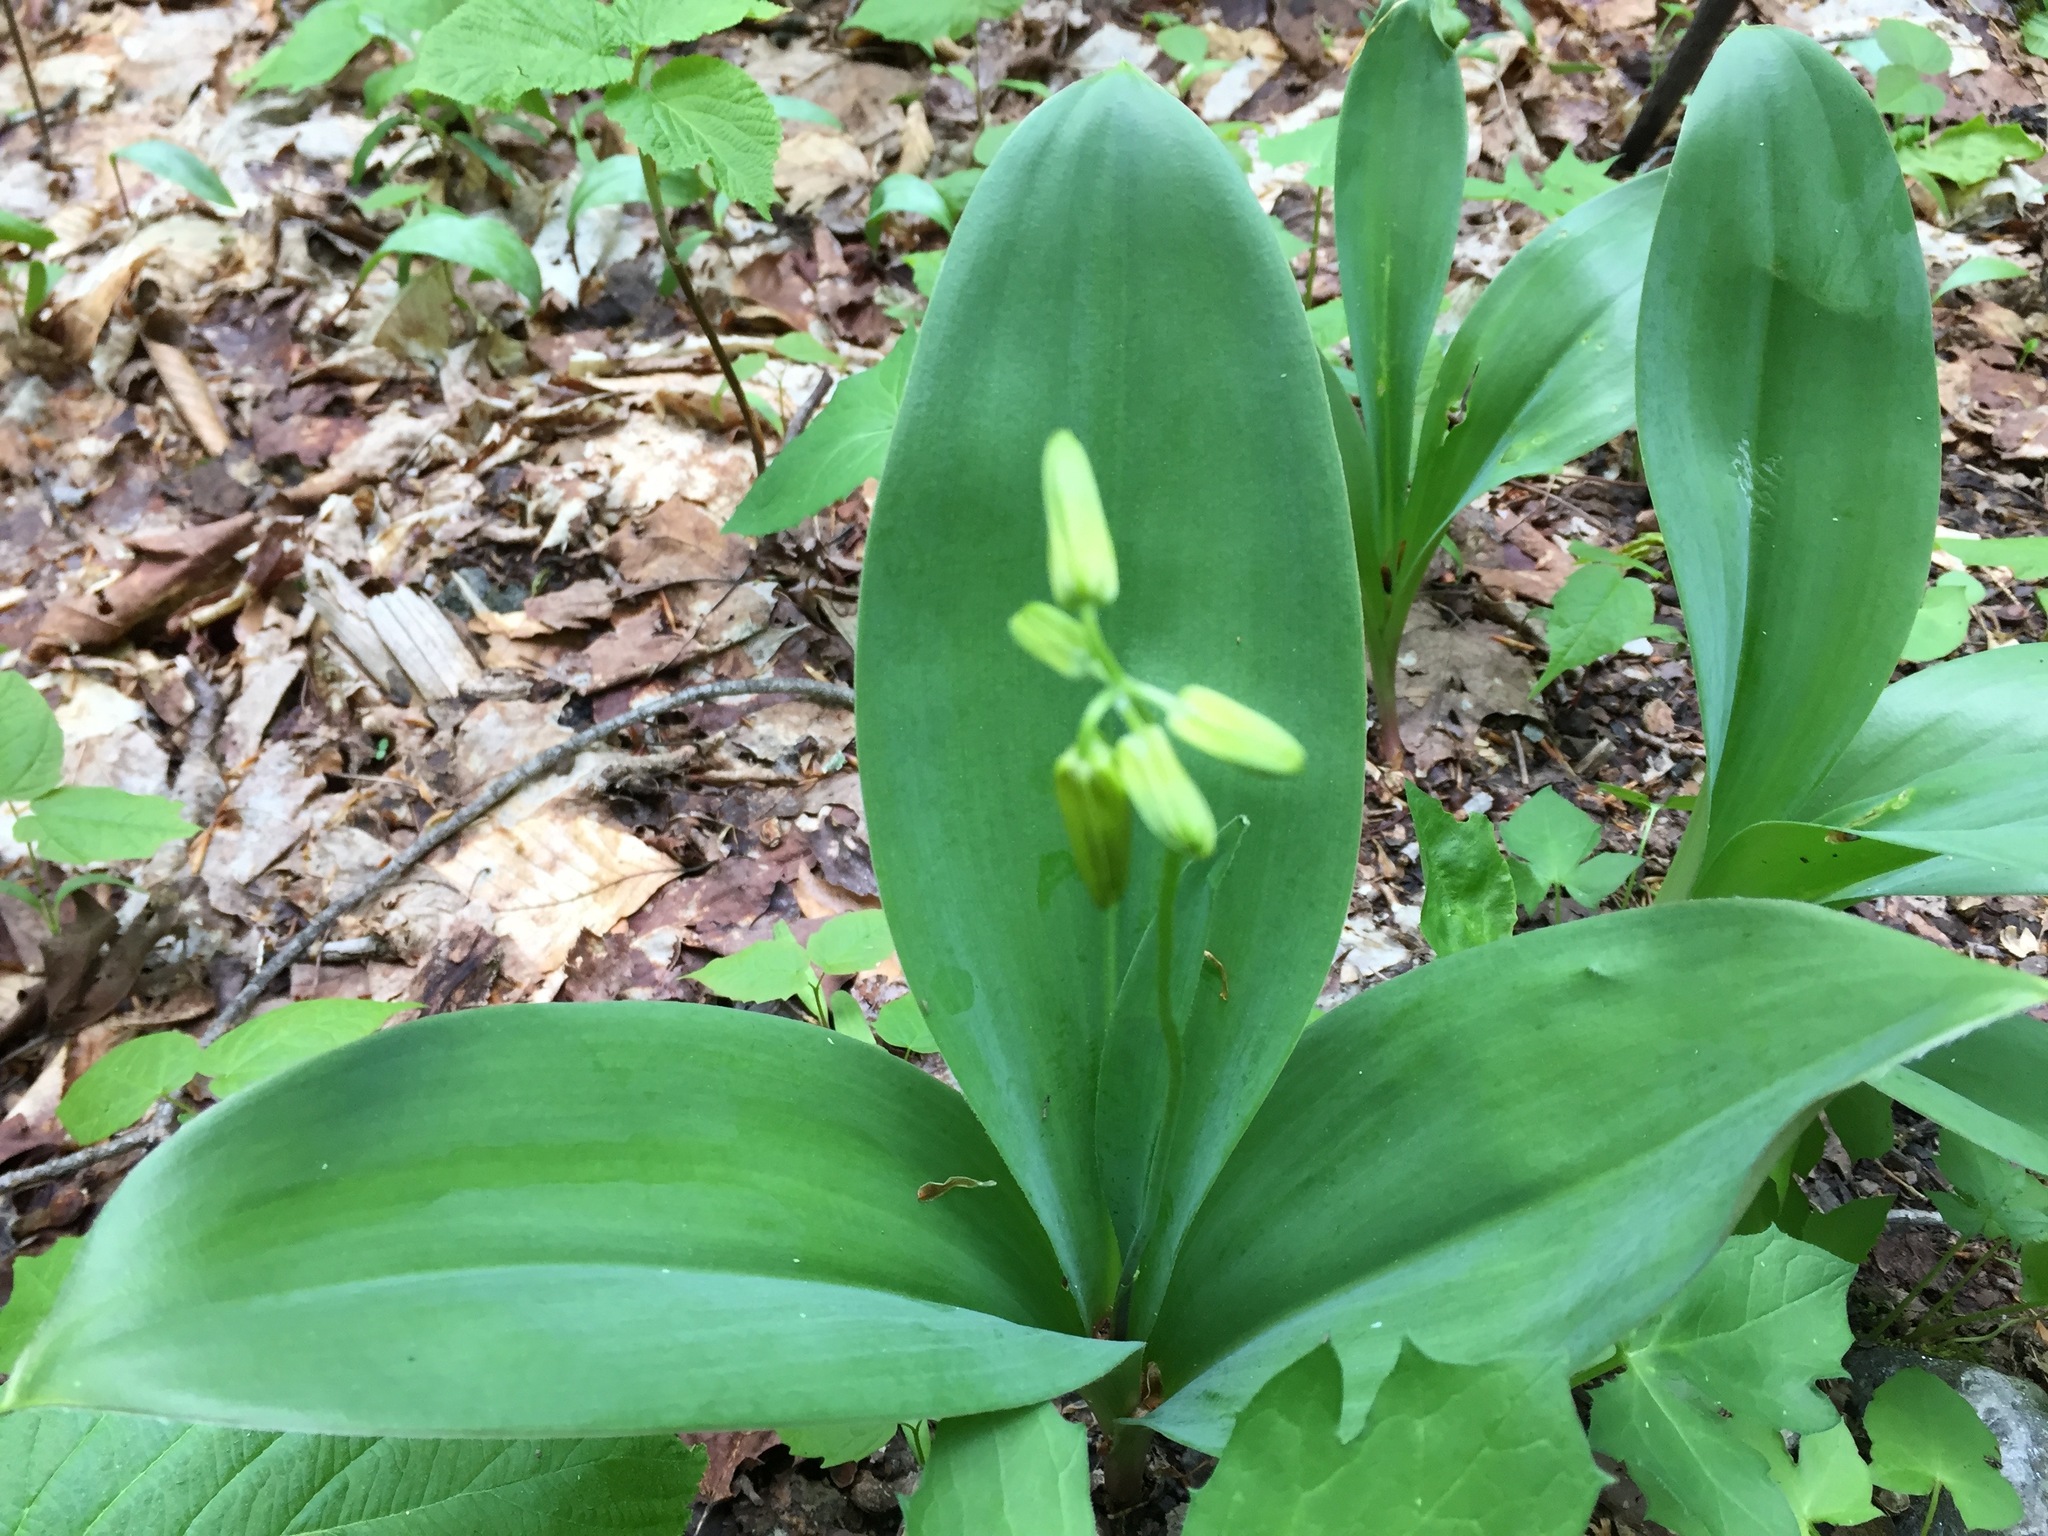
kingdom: Plantae
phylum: Tracheophyta
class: Liliopsida
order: Liliales
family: Liliaceae
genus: Clintonia
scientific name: Clintonia borealis
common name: Yellow clintonia
